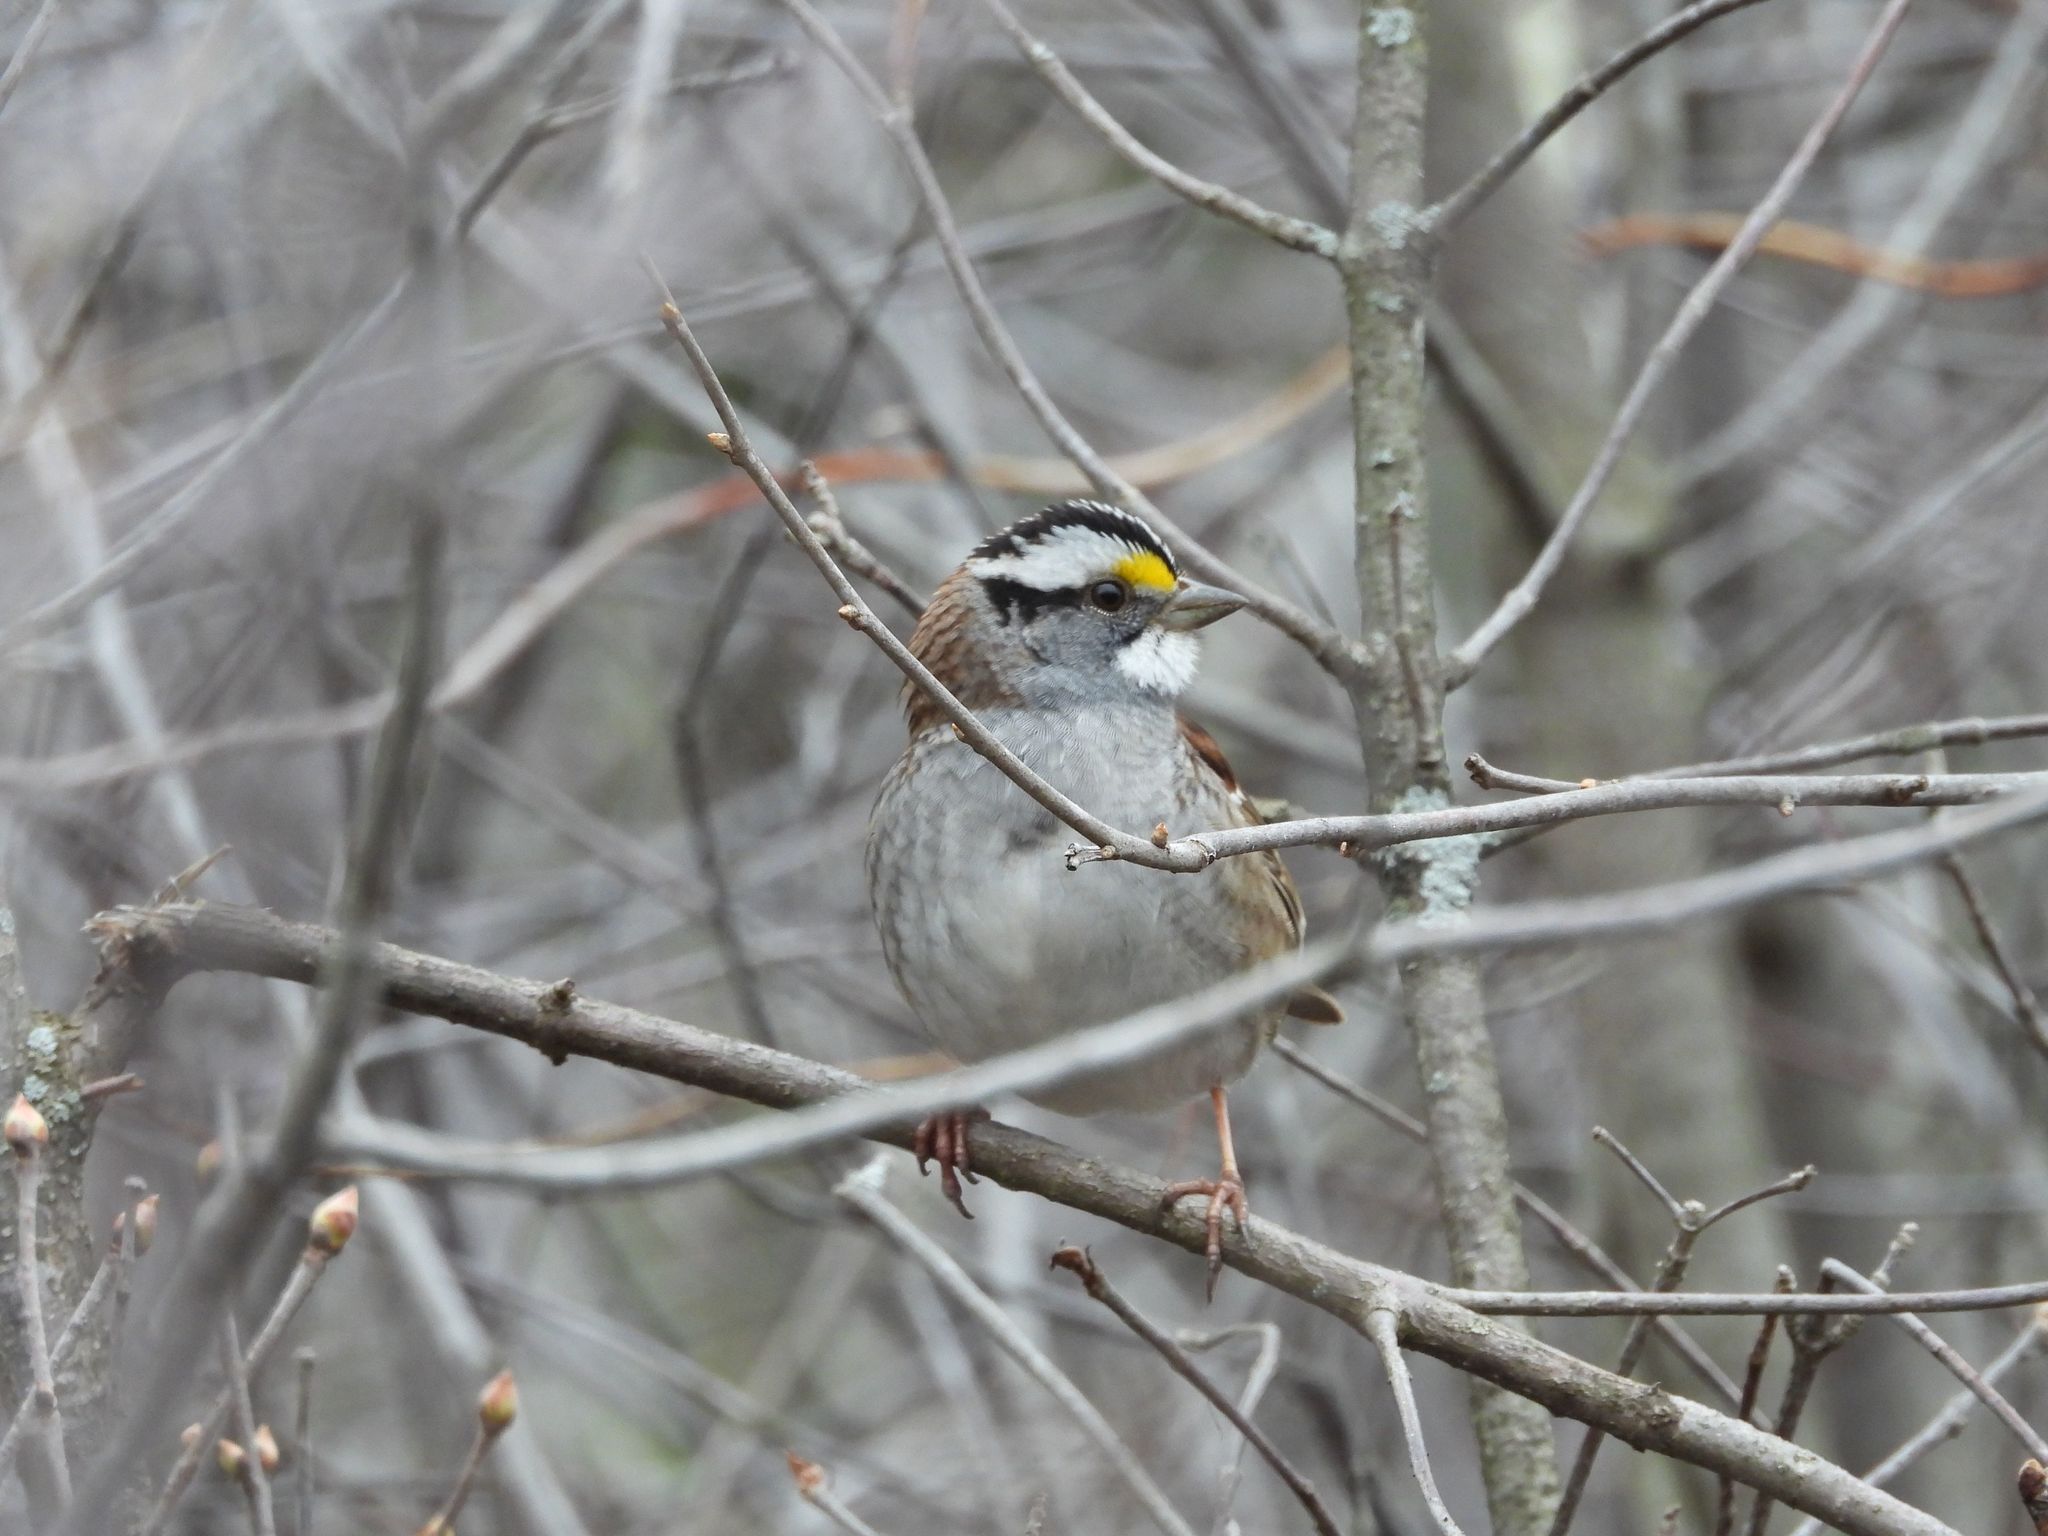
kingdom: Animalia
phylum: Chordata
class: Aves
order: Passeriformes
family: Passerellidae
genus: Zonotrichia
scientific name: Zonotrichia albicollis
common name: White-throated sparrow
